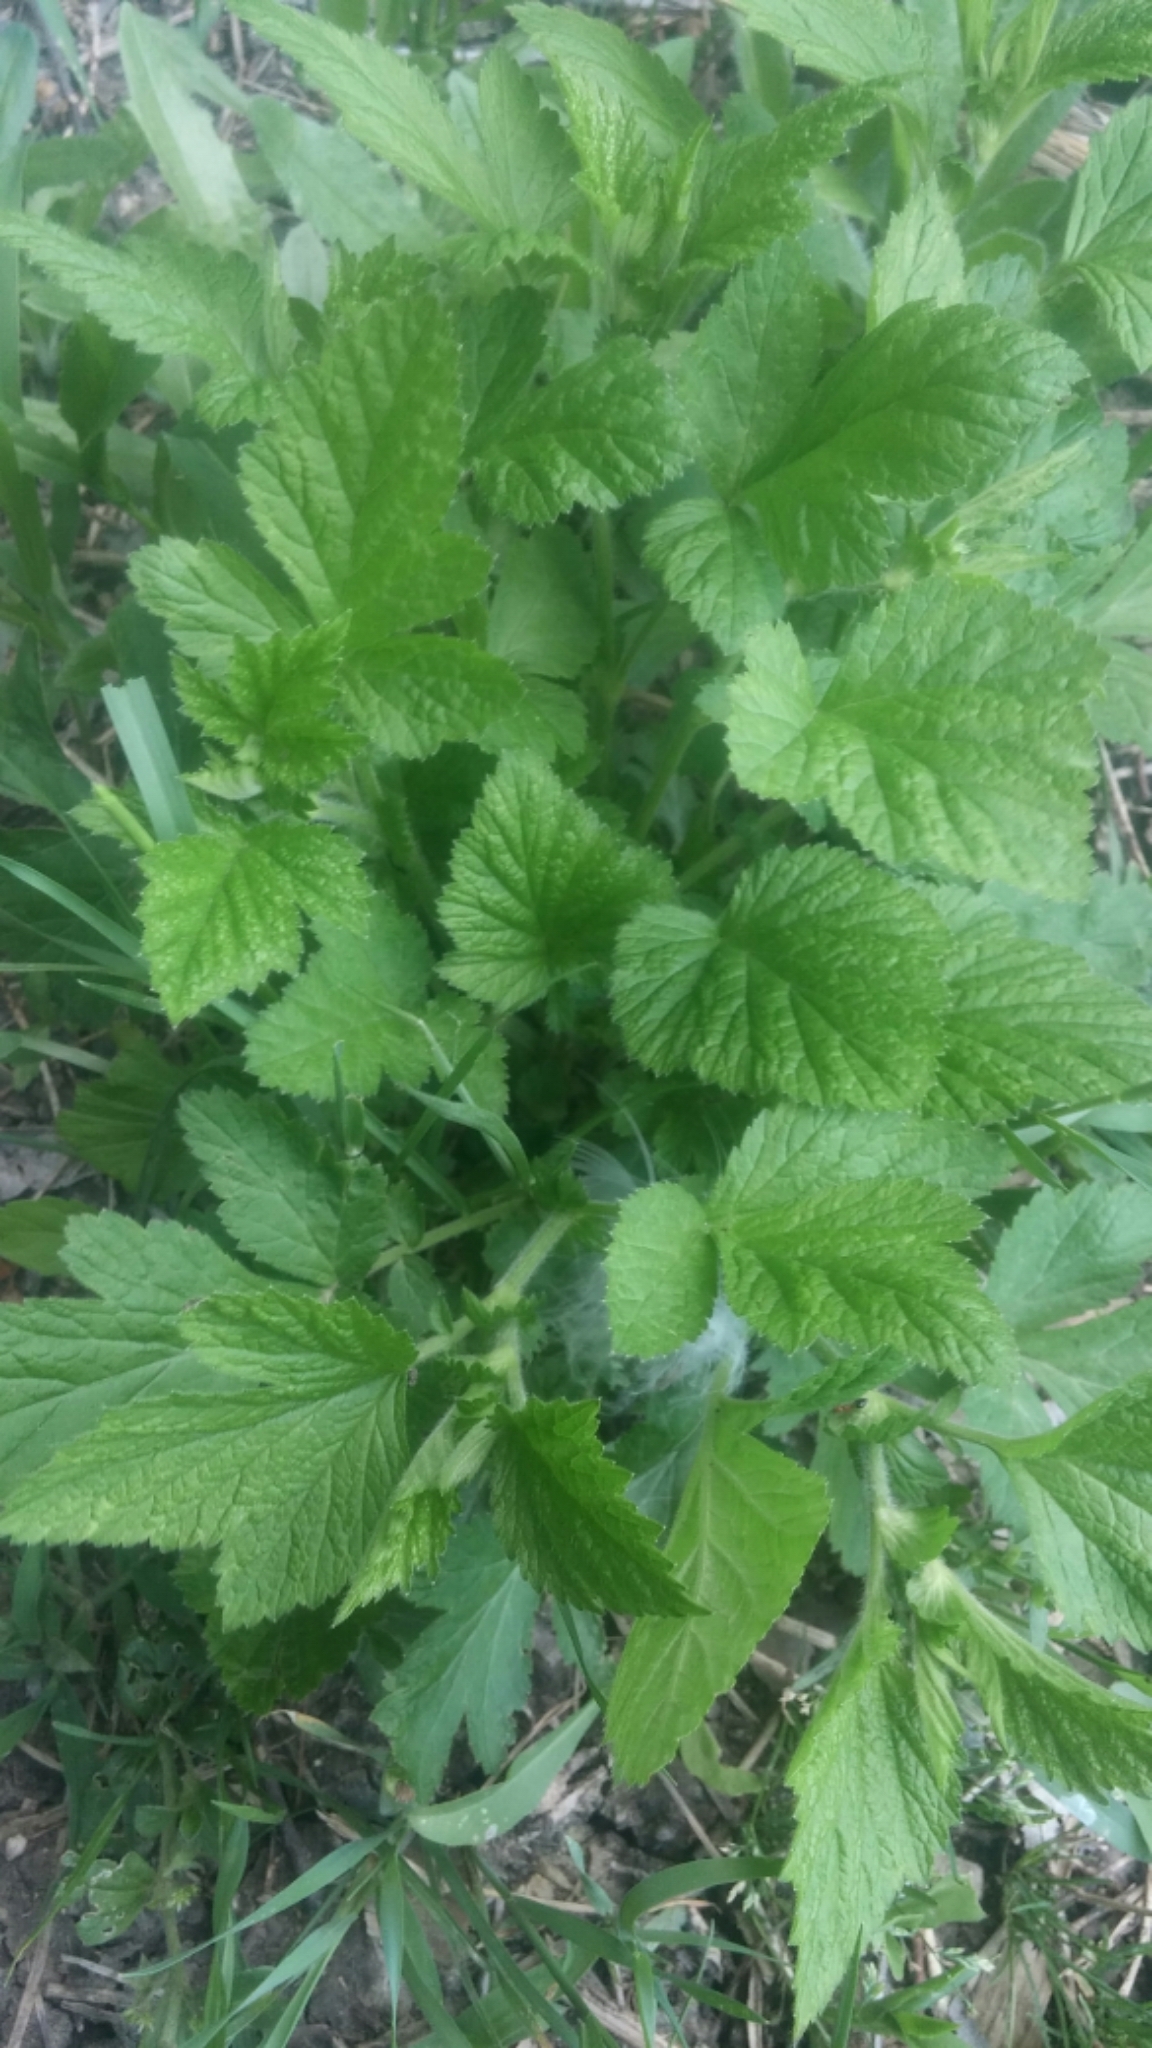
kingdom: Plantae
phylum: Tracheophyta
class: Magnoliopsida
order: Rosales
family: Rosaceae
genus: Geum
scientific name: Geum canadense
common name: White avens
